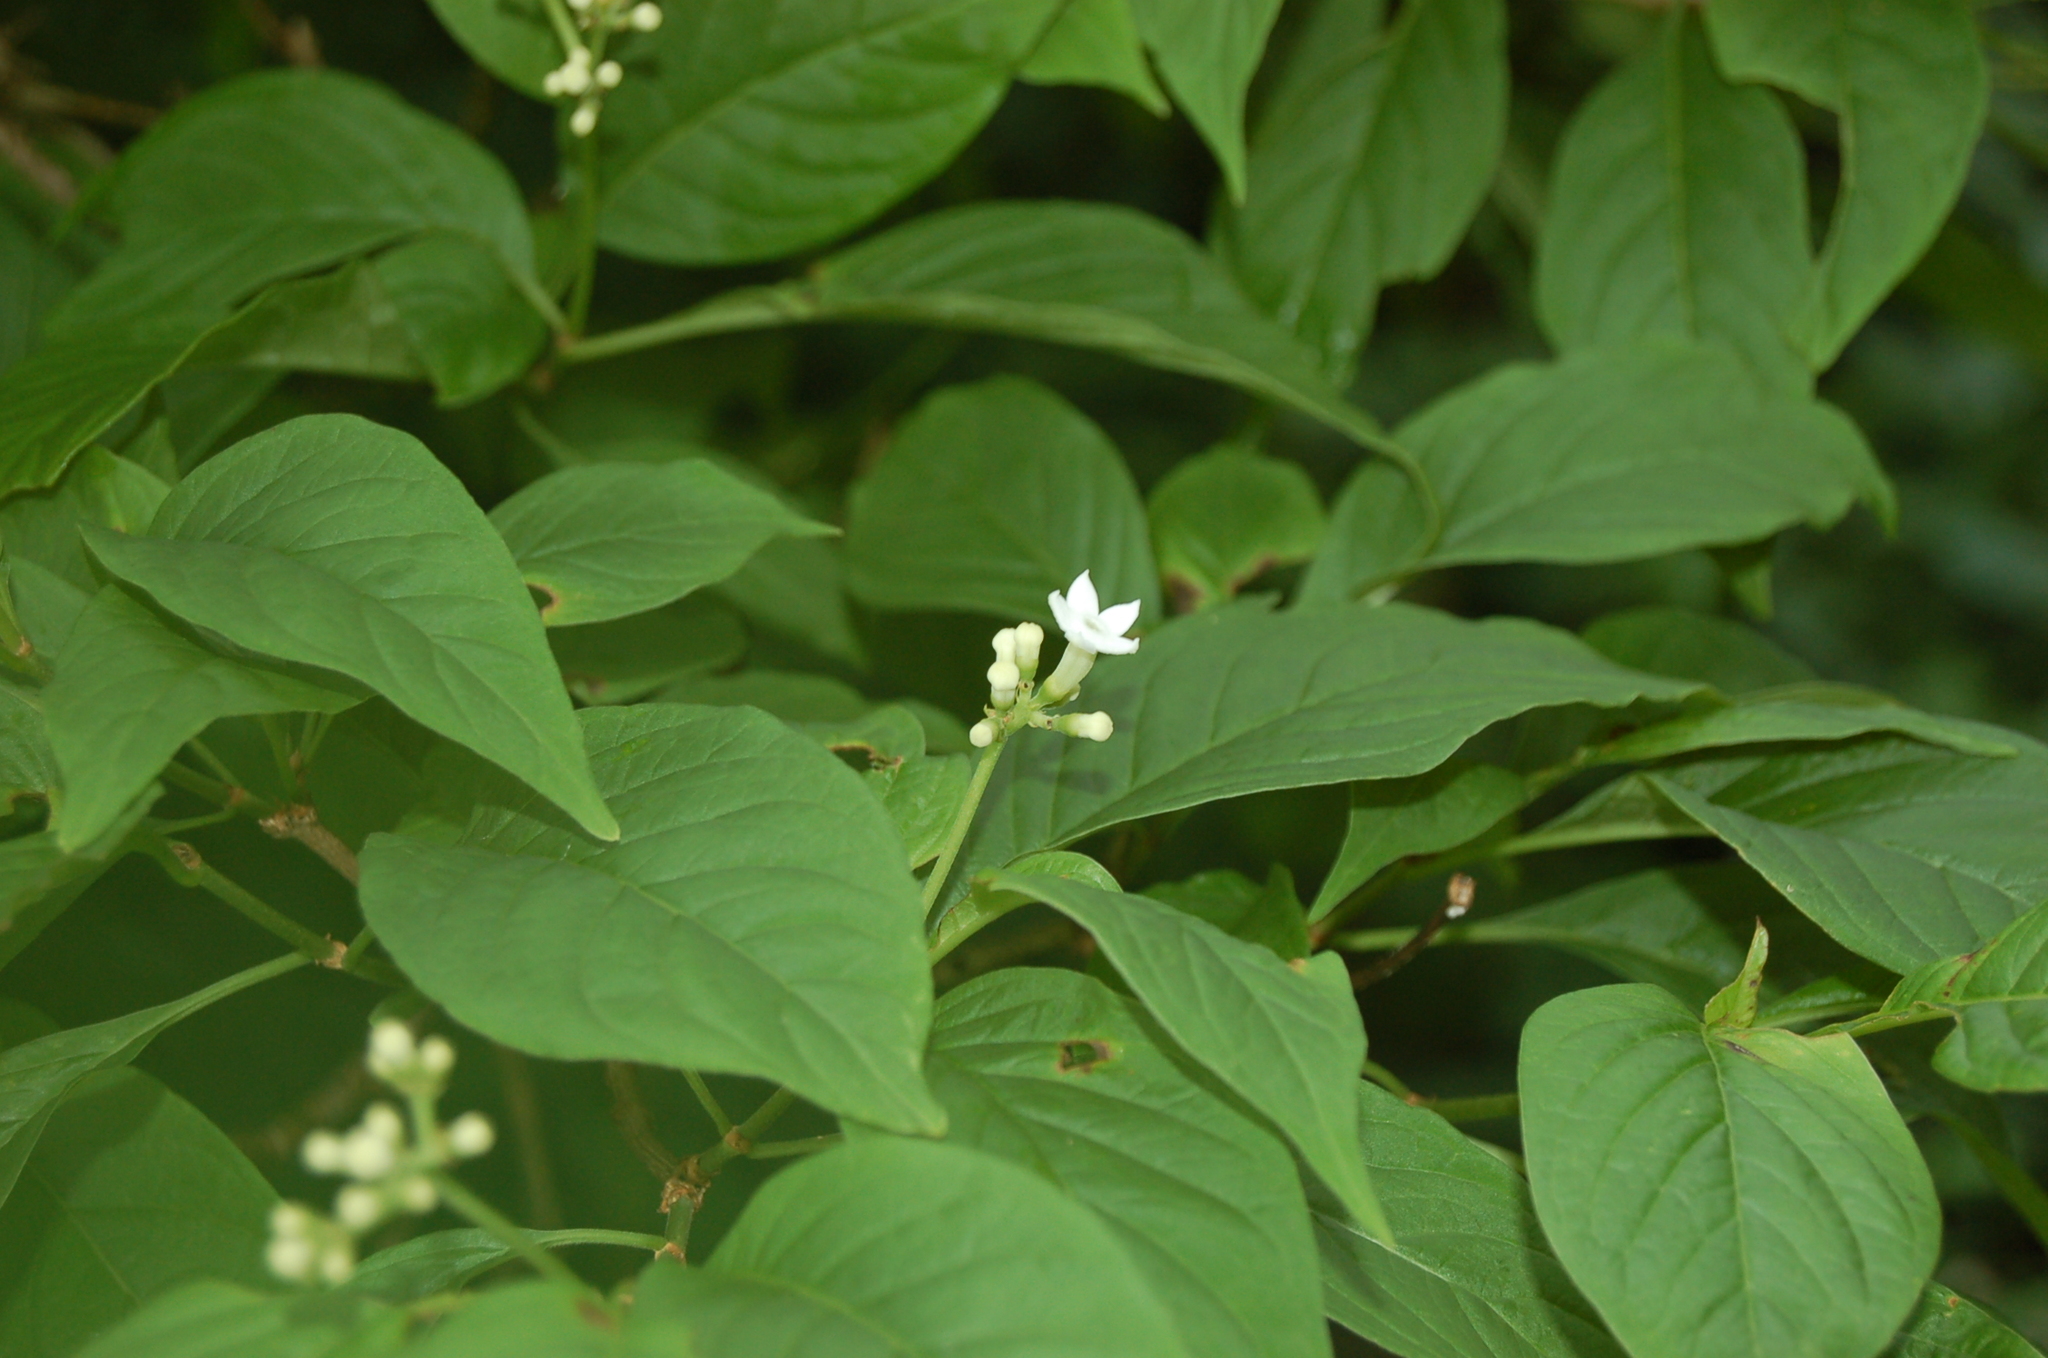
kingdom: Plantae
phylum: Tracheophyta
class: Magnoliopsida
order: Gentianales
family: Rubiaceae
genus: Eumachia
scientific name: Eumachia microdon
